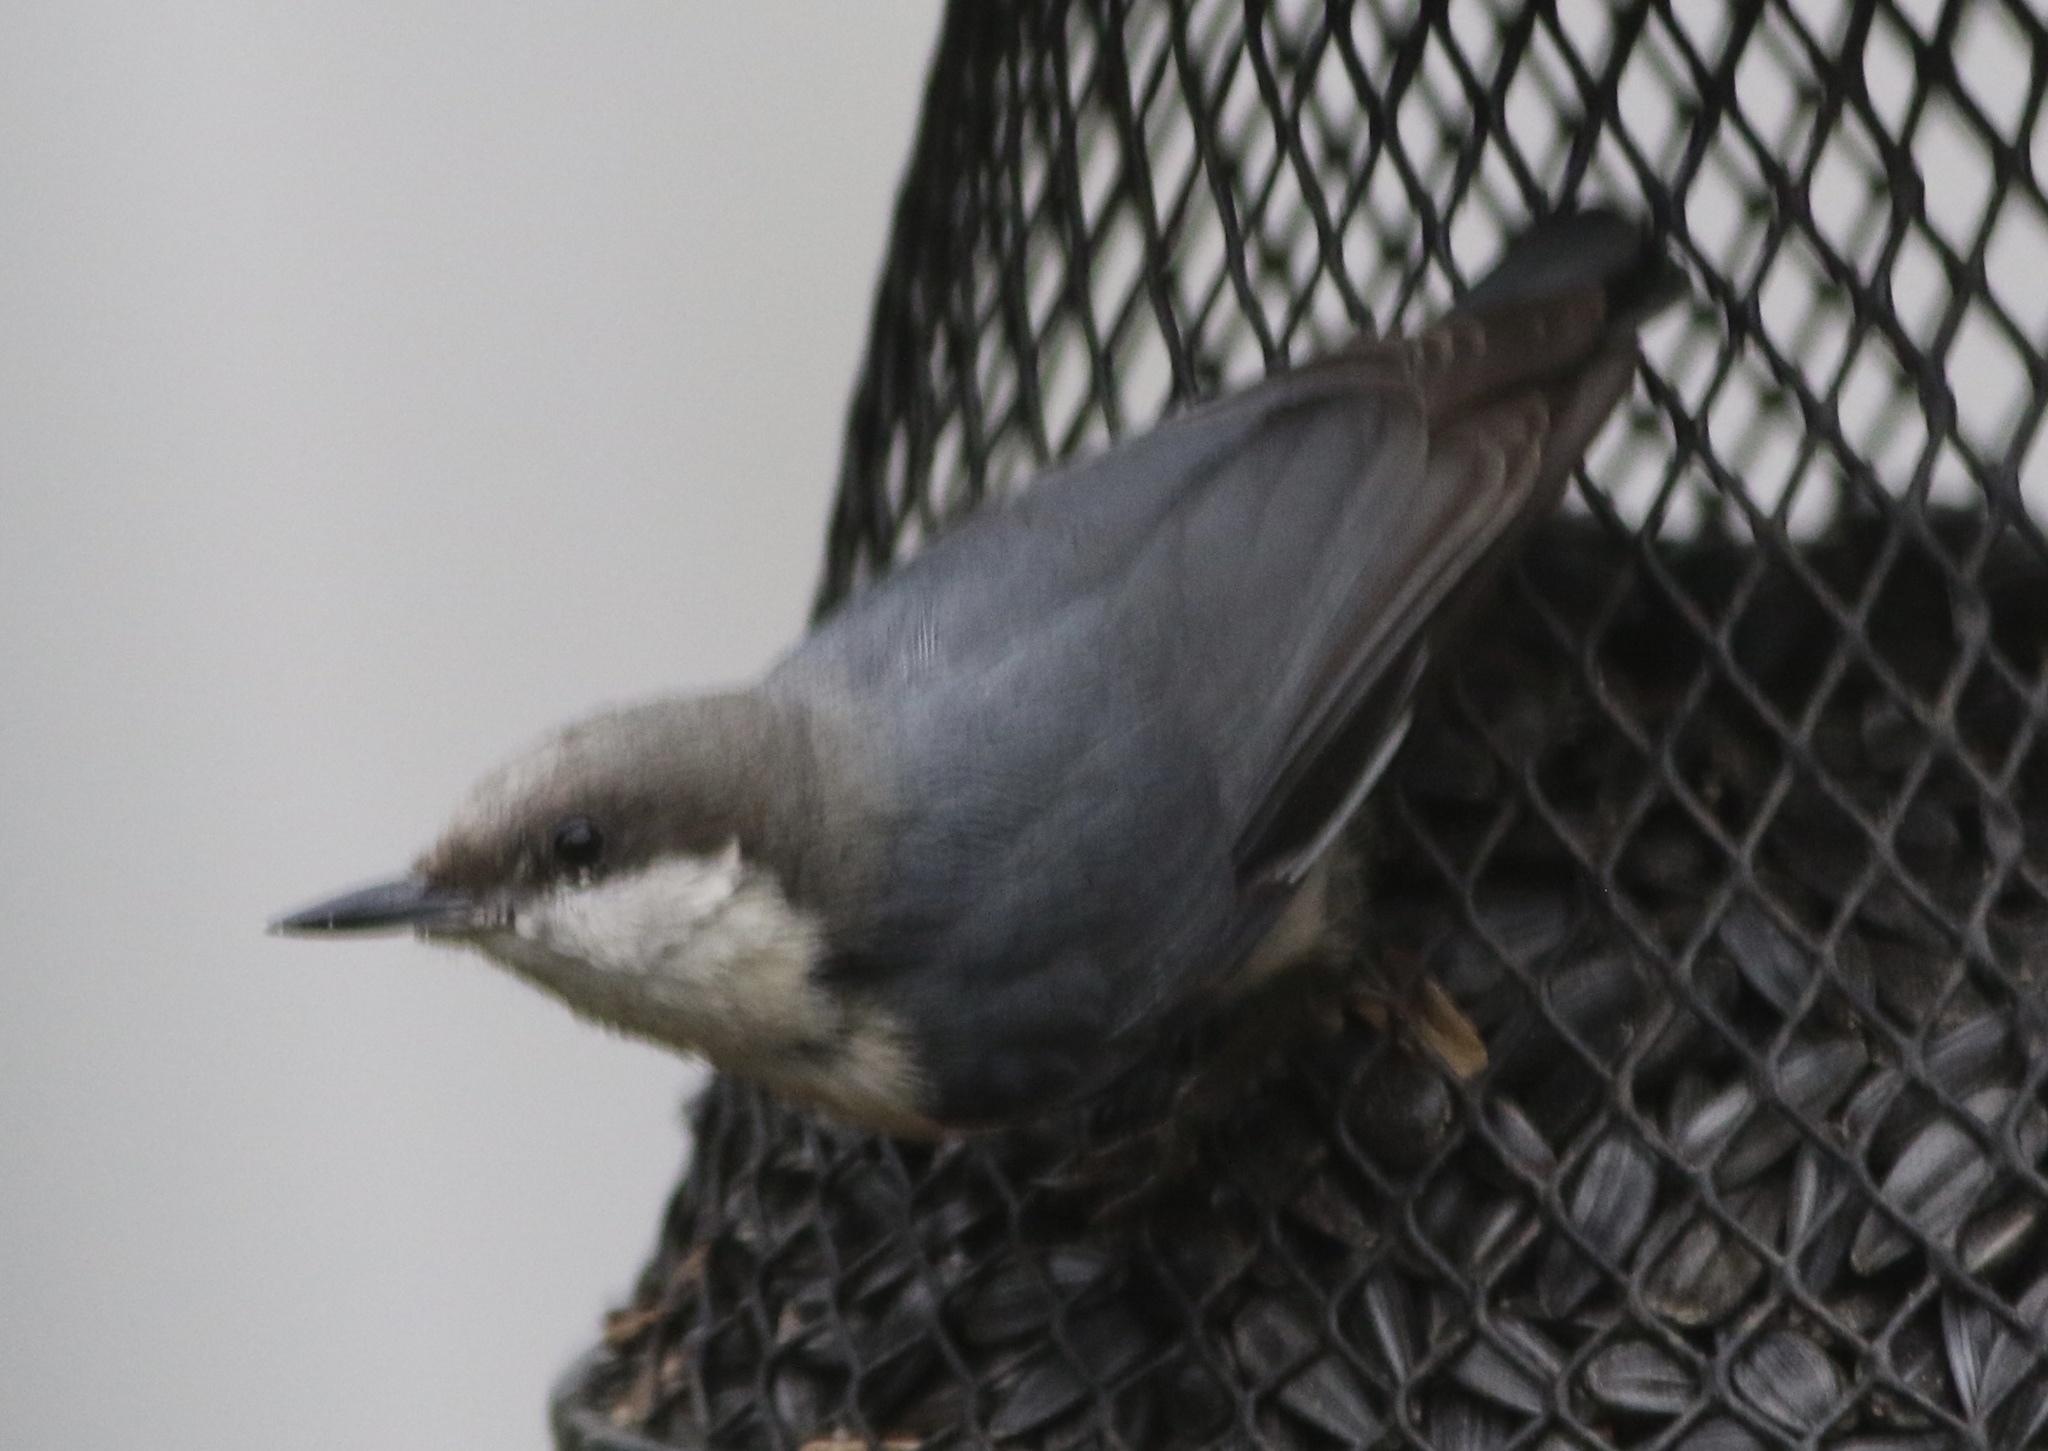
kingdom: Animalia
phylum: Chordata
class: Aves
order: Passeriformes
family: Sittidae
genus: Sitta
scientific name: Sitta pygmaea
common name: Pygmy nuthatch
